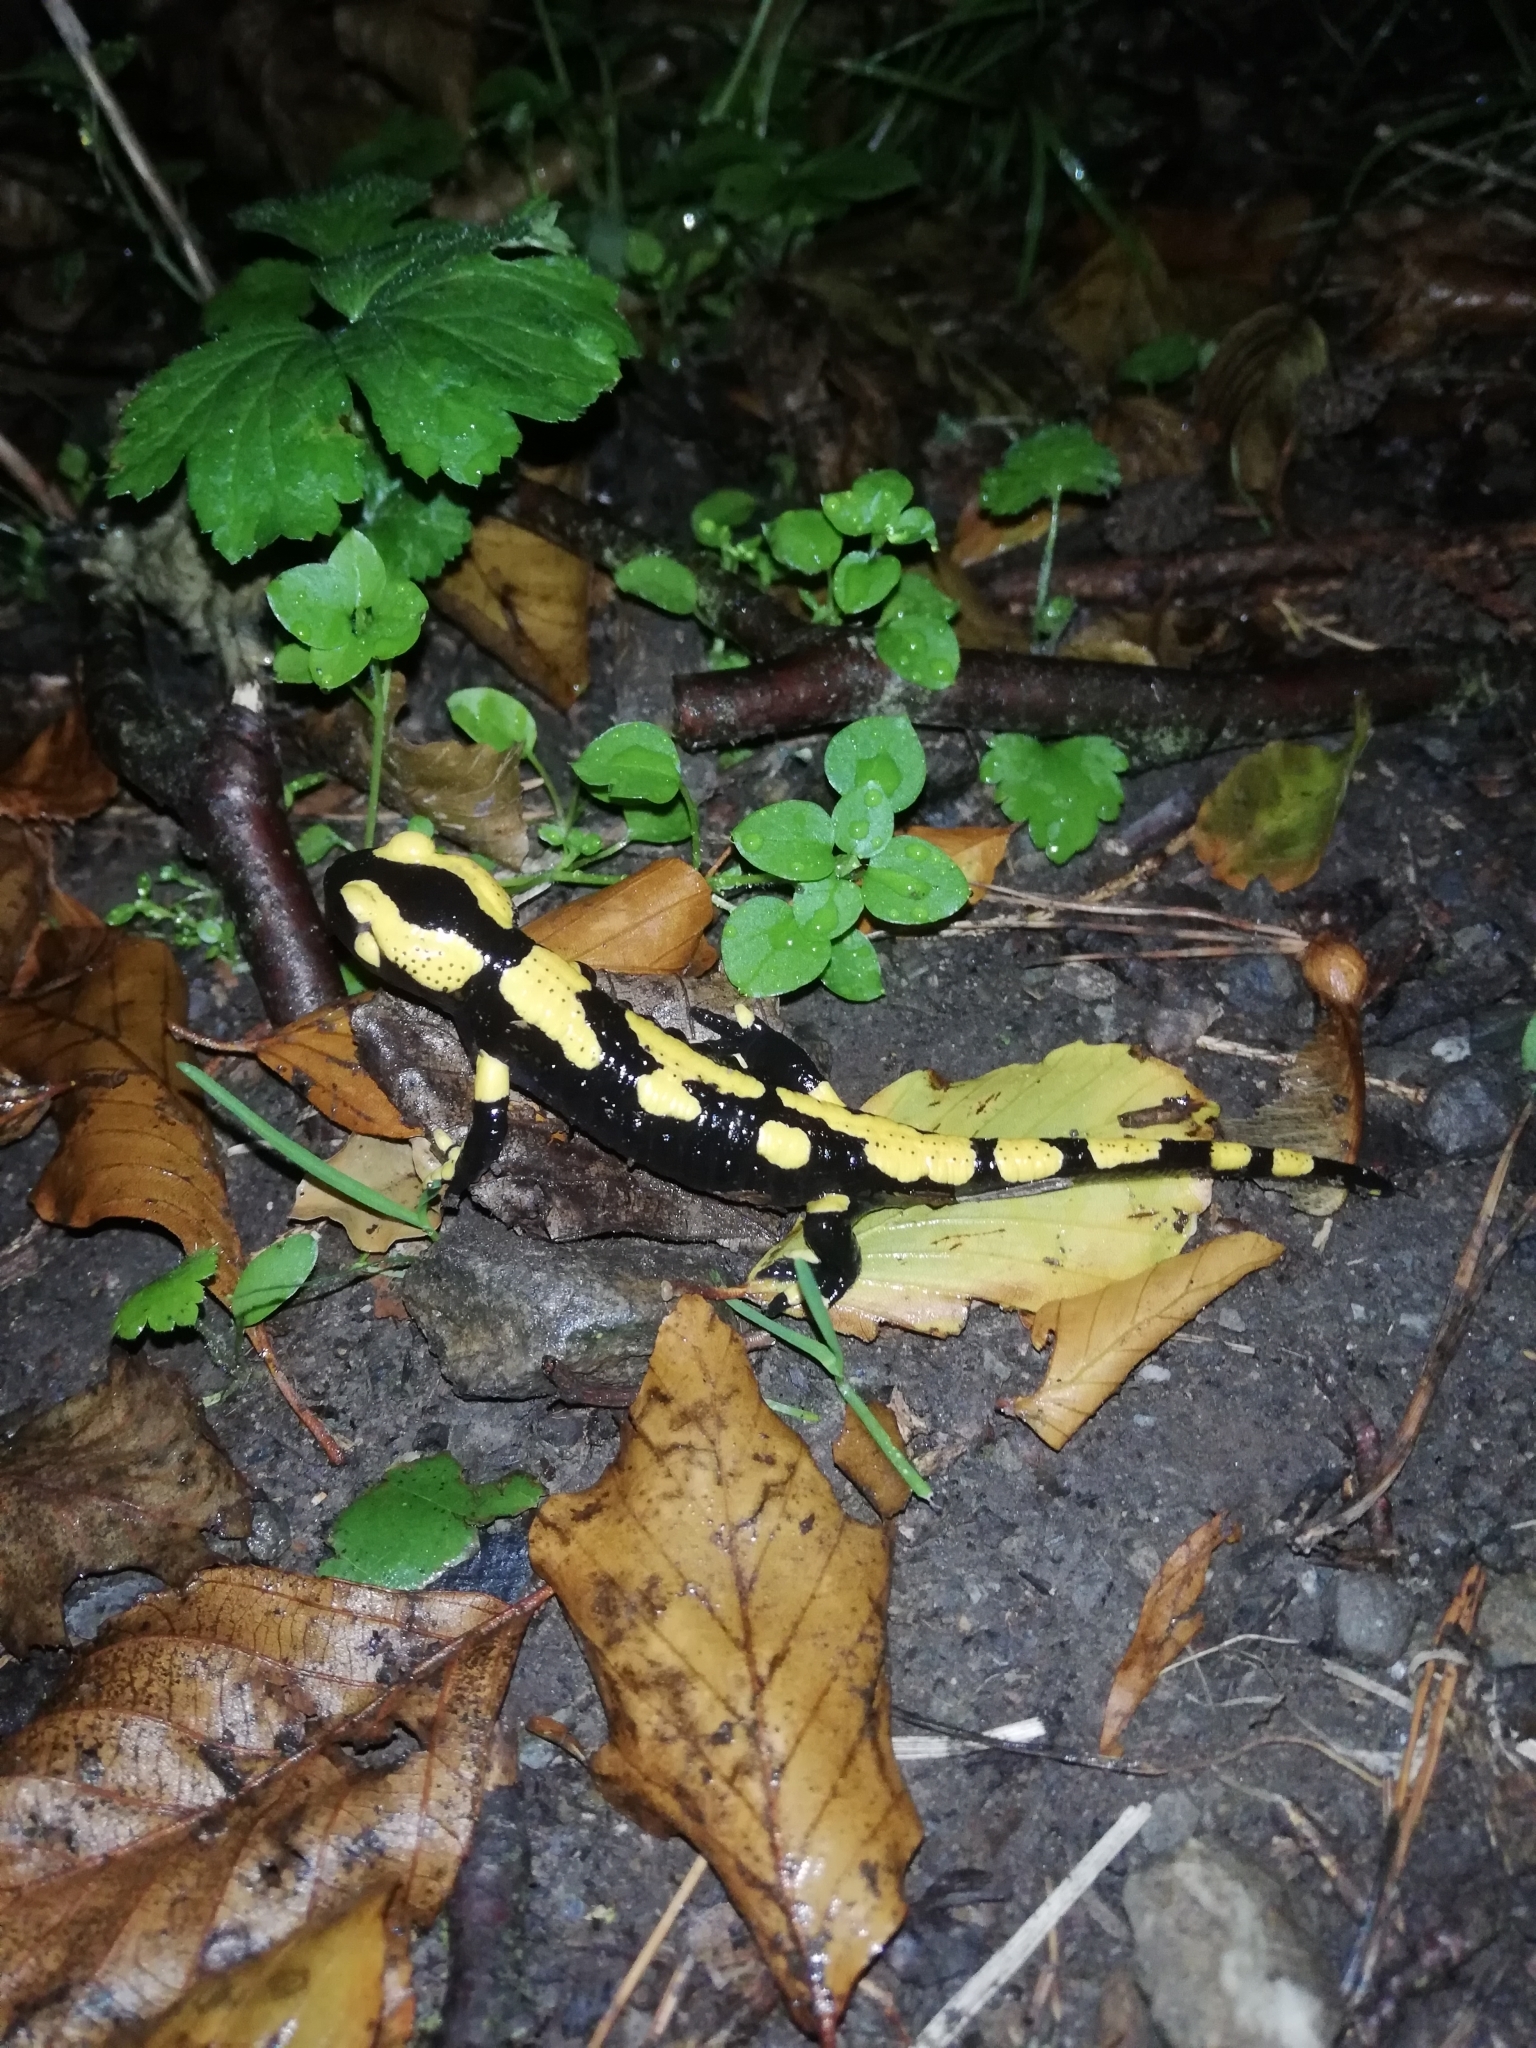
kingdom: Animalia
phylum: Chordata
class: Amphibia
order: Caudata
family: Salamandridae
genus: Salamandra
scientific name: Salamandra salamandra
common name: Fire salamander
